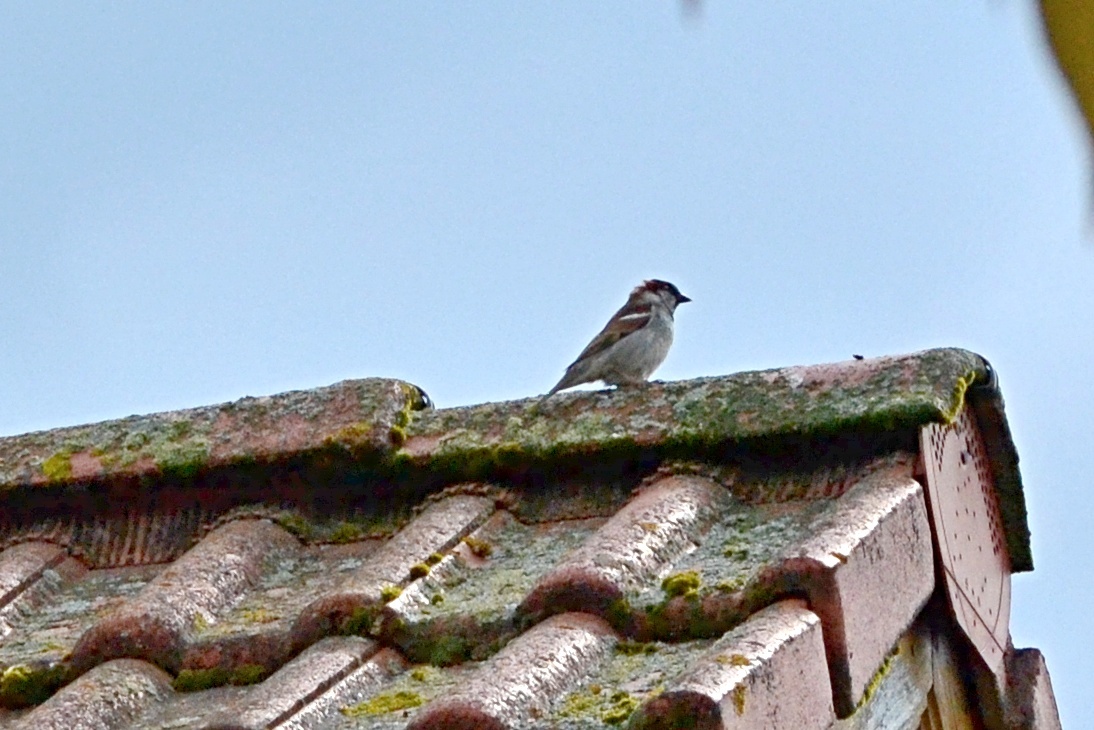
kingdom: Animalia
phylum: Chordata
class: Aves
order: Passeriformes
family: Passeridae
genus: Passer
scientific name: Passer domesticus
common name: House sparrow
